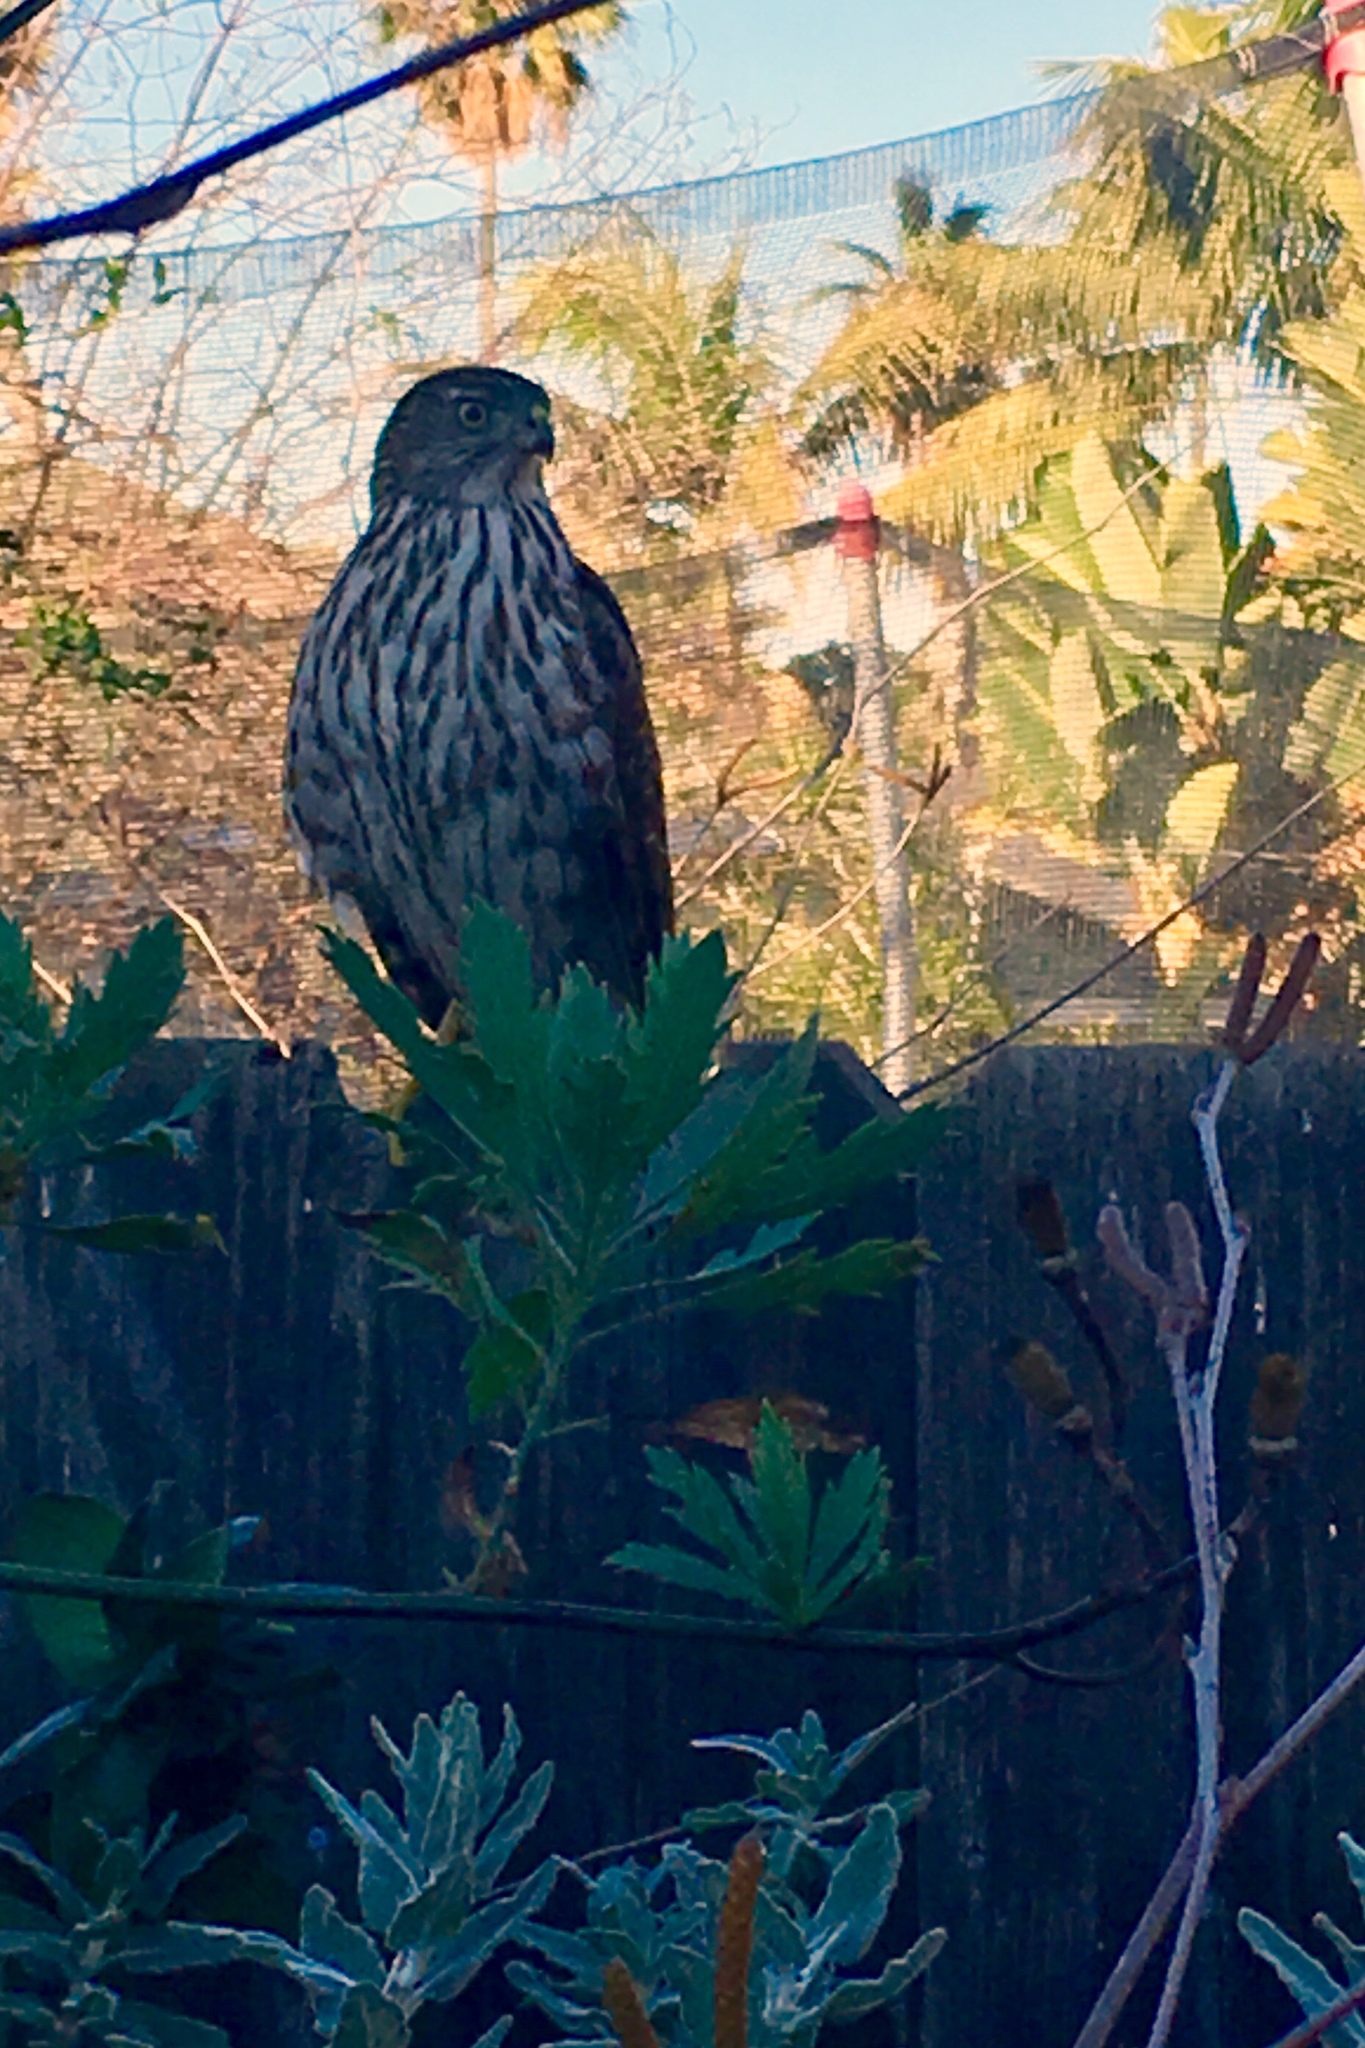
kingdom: Animalia
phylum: Chordata
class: Aves
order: Accipitriformes
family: Accipitridae
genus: Accipiter
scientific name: Accipiter cooperii
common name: Cooper's hawk
